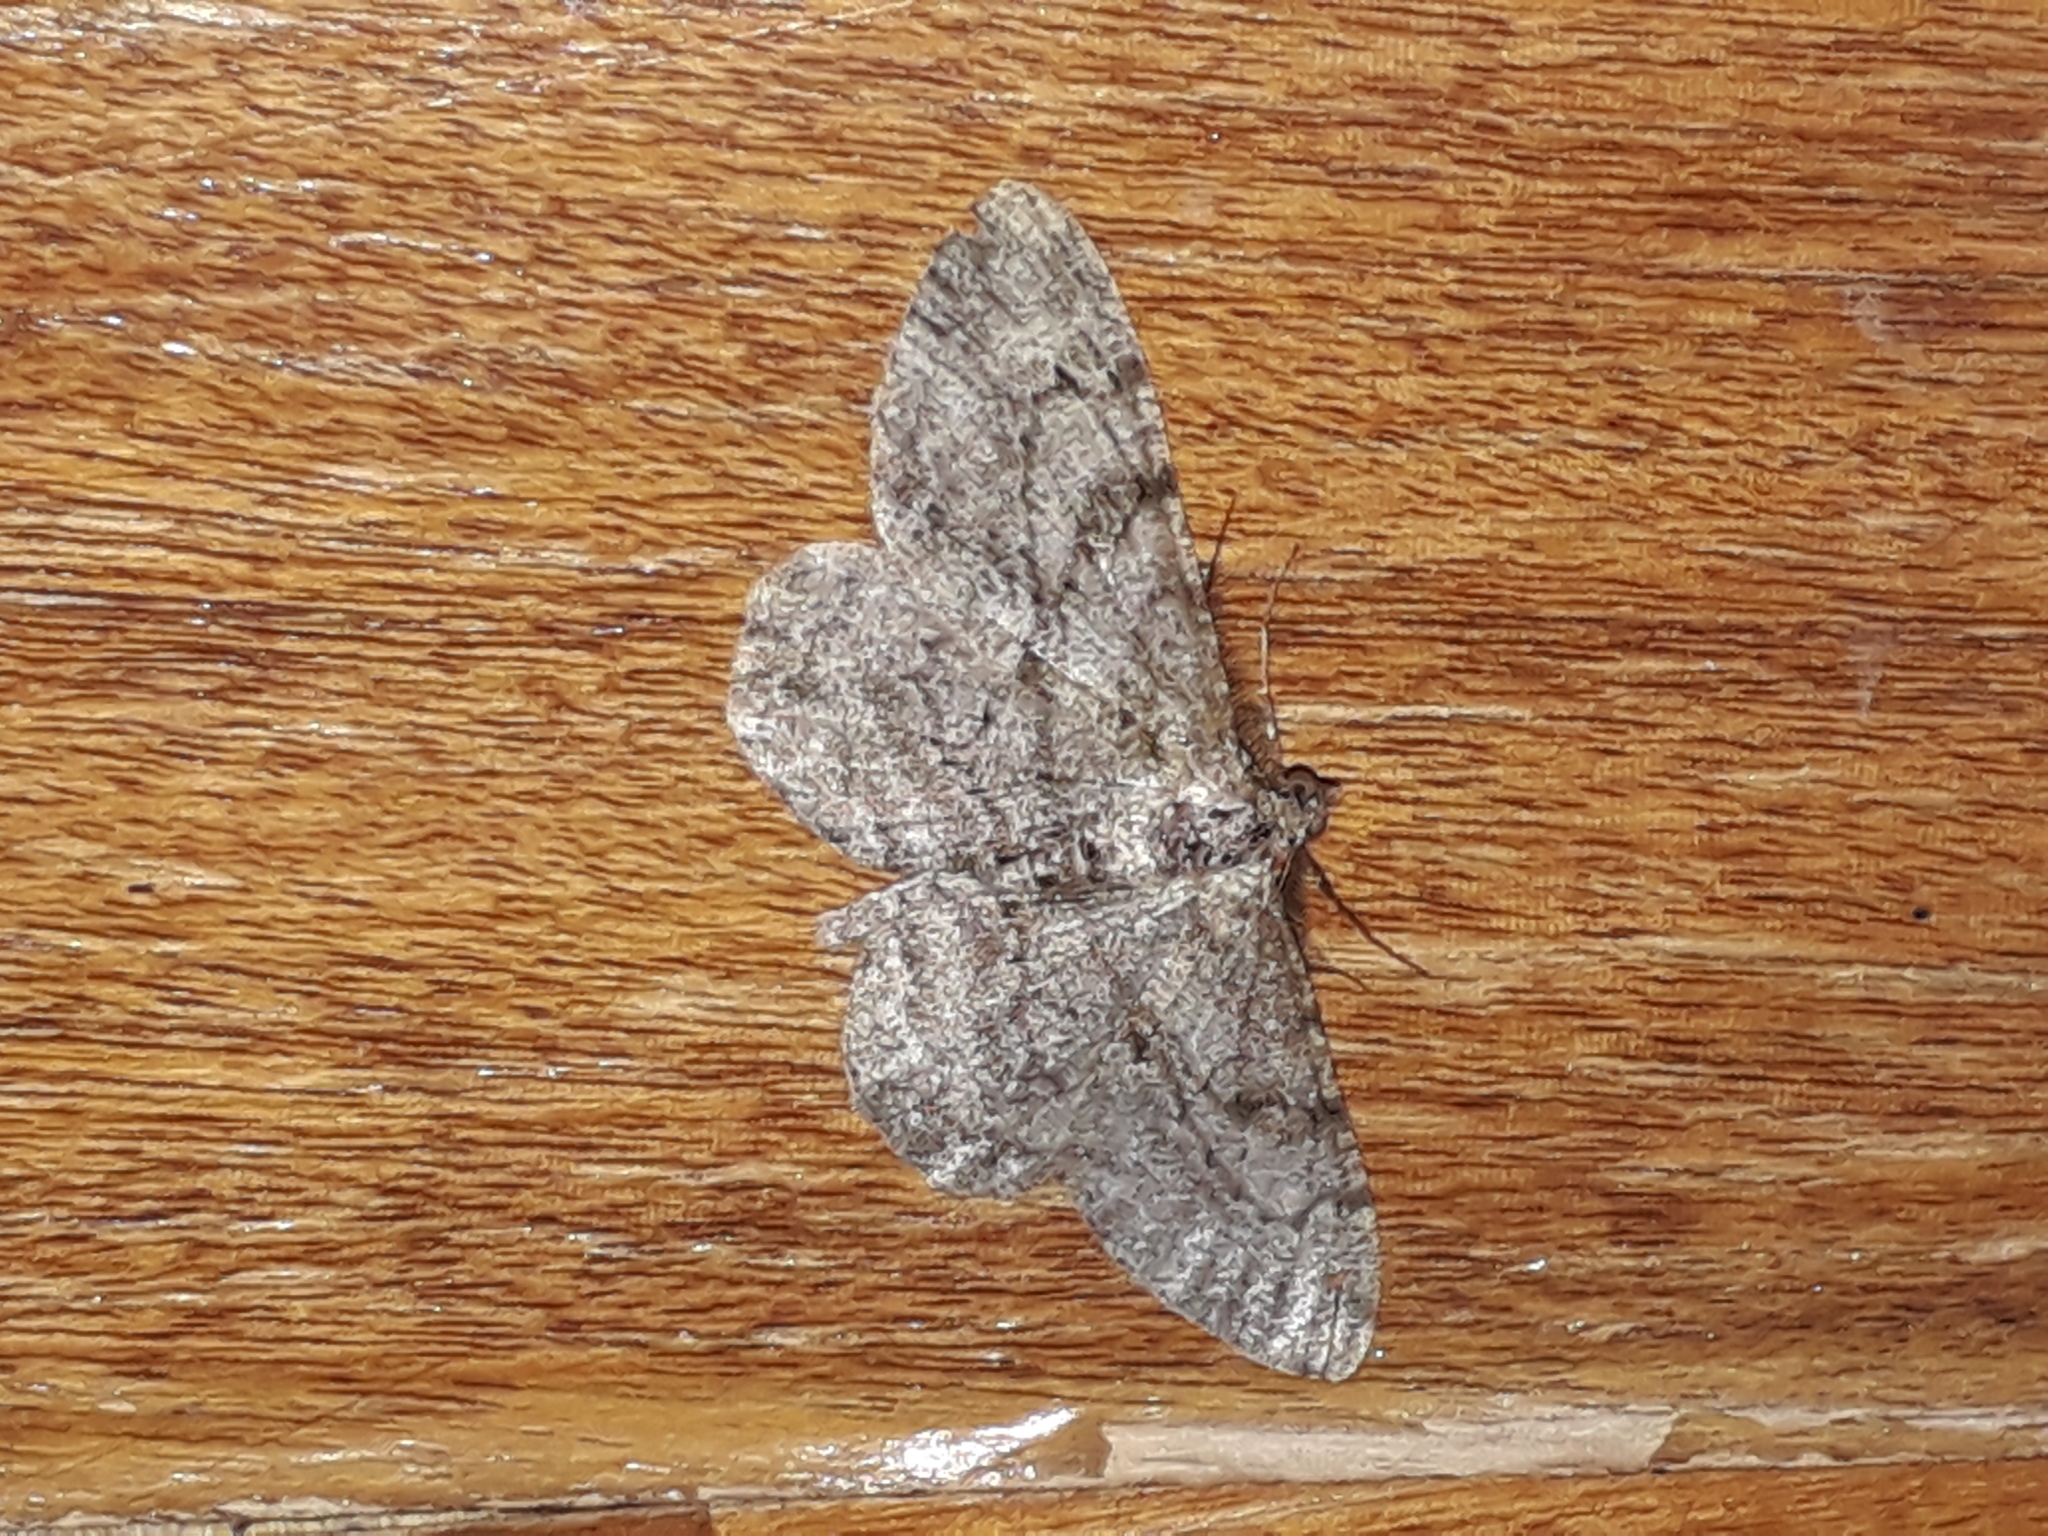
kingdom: Animalia
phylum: Arthropoda
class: Insecta
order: Lepidoptera
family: Geometridae
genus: Peribatodes
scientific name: Peribatodes rhomboidaria
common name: Willow beauty
